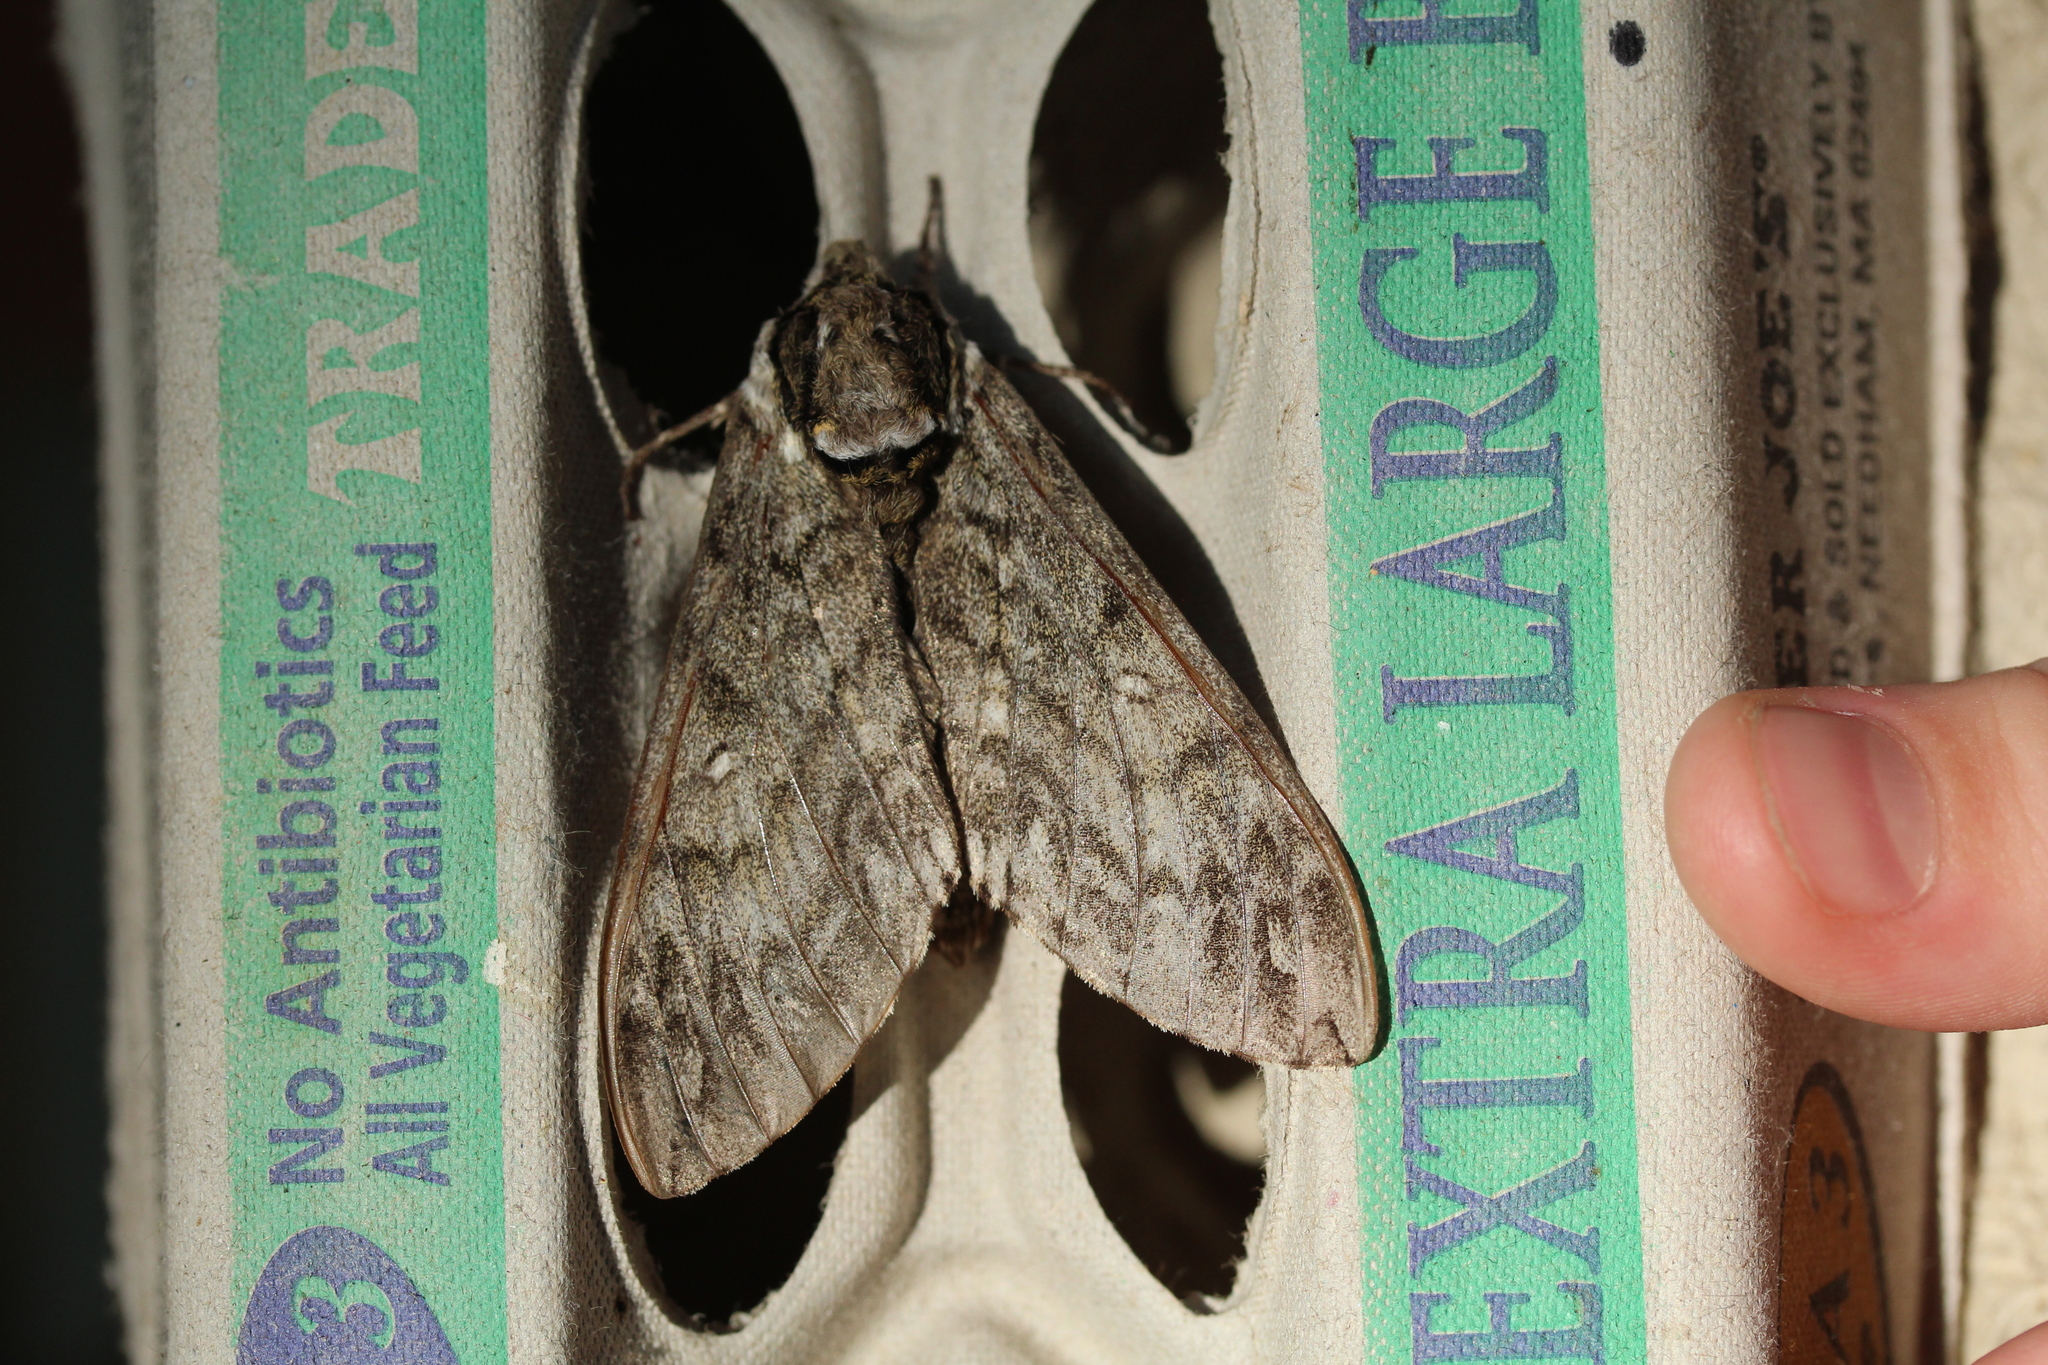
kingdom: Animalia
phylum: Arthropoda
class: Insecta
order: Lepidoptera
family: Sphingidae
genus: Ceratomia
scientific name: Ceratomia undulosa
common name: Waved sphinx
